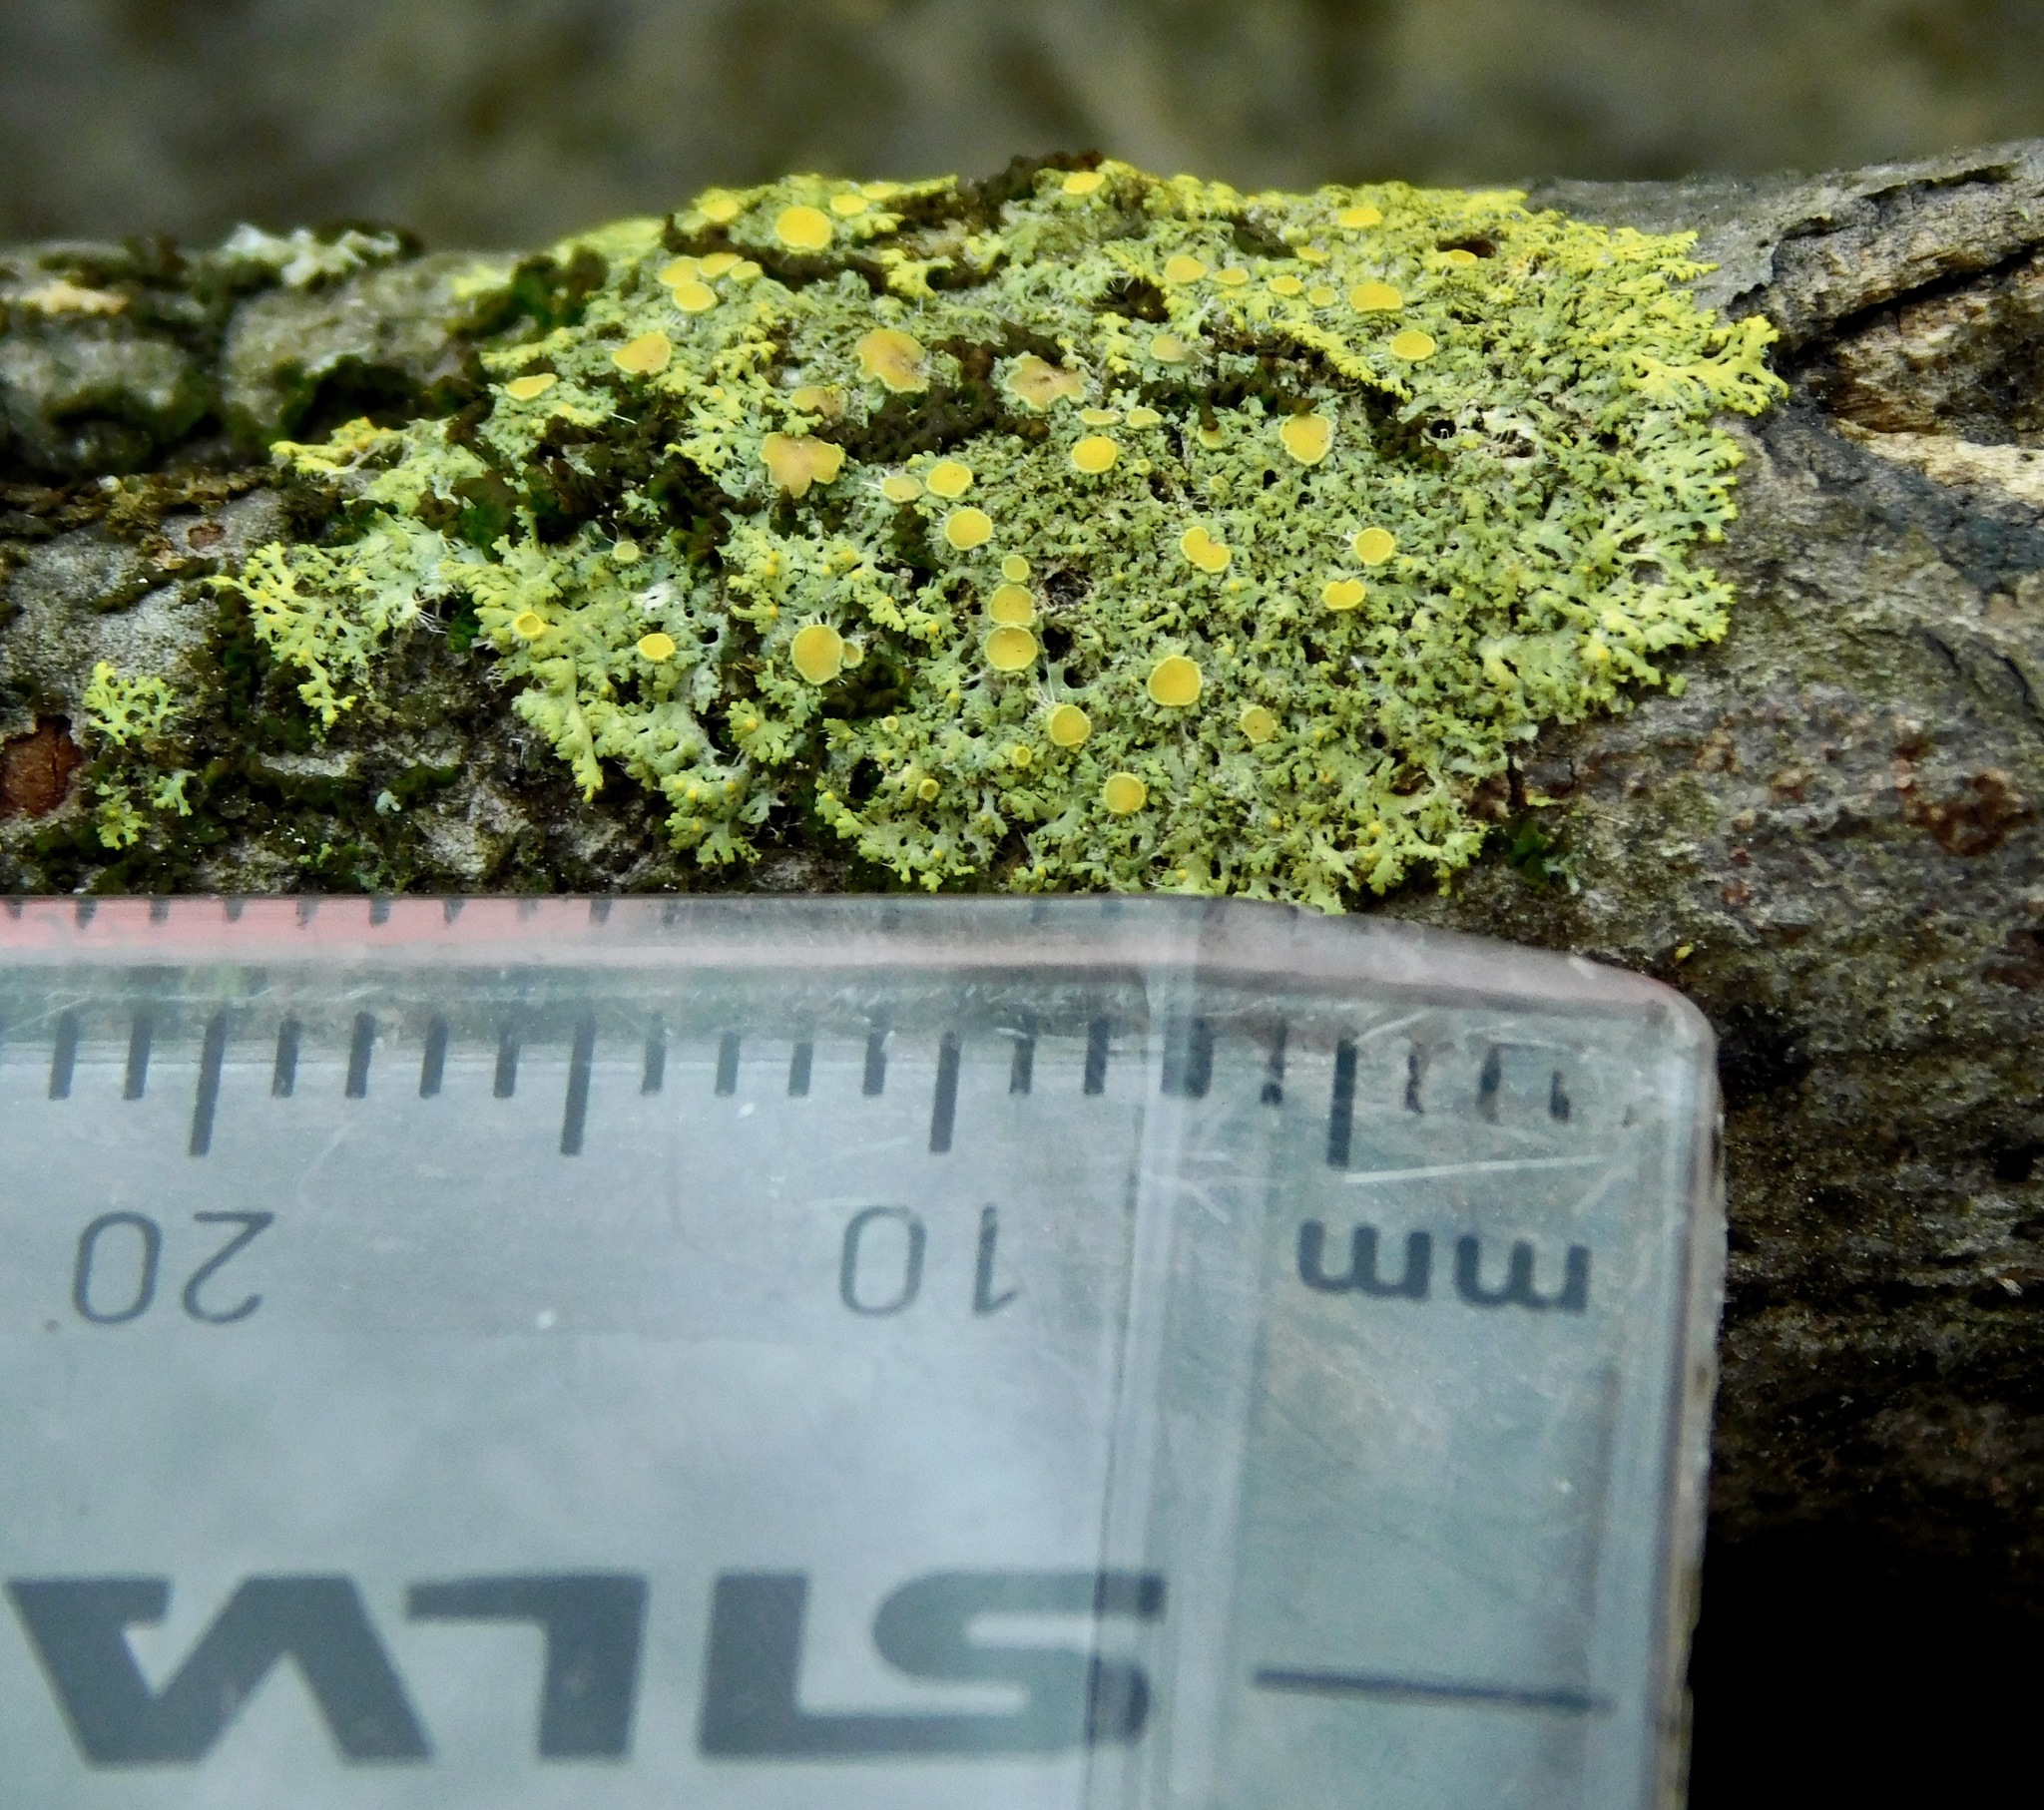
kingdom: Fungi
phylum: Ascomycota
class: Candelariomycetes
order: Candelariales
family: Candelariaceae
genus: Candelaria
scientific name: Candelaria fibrosa
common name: Fringed candleflame lichen
